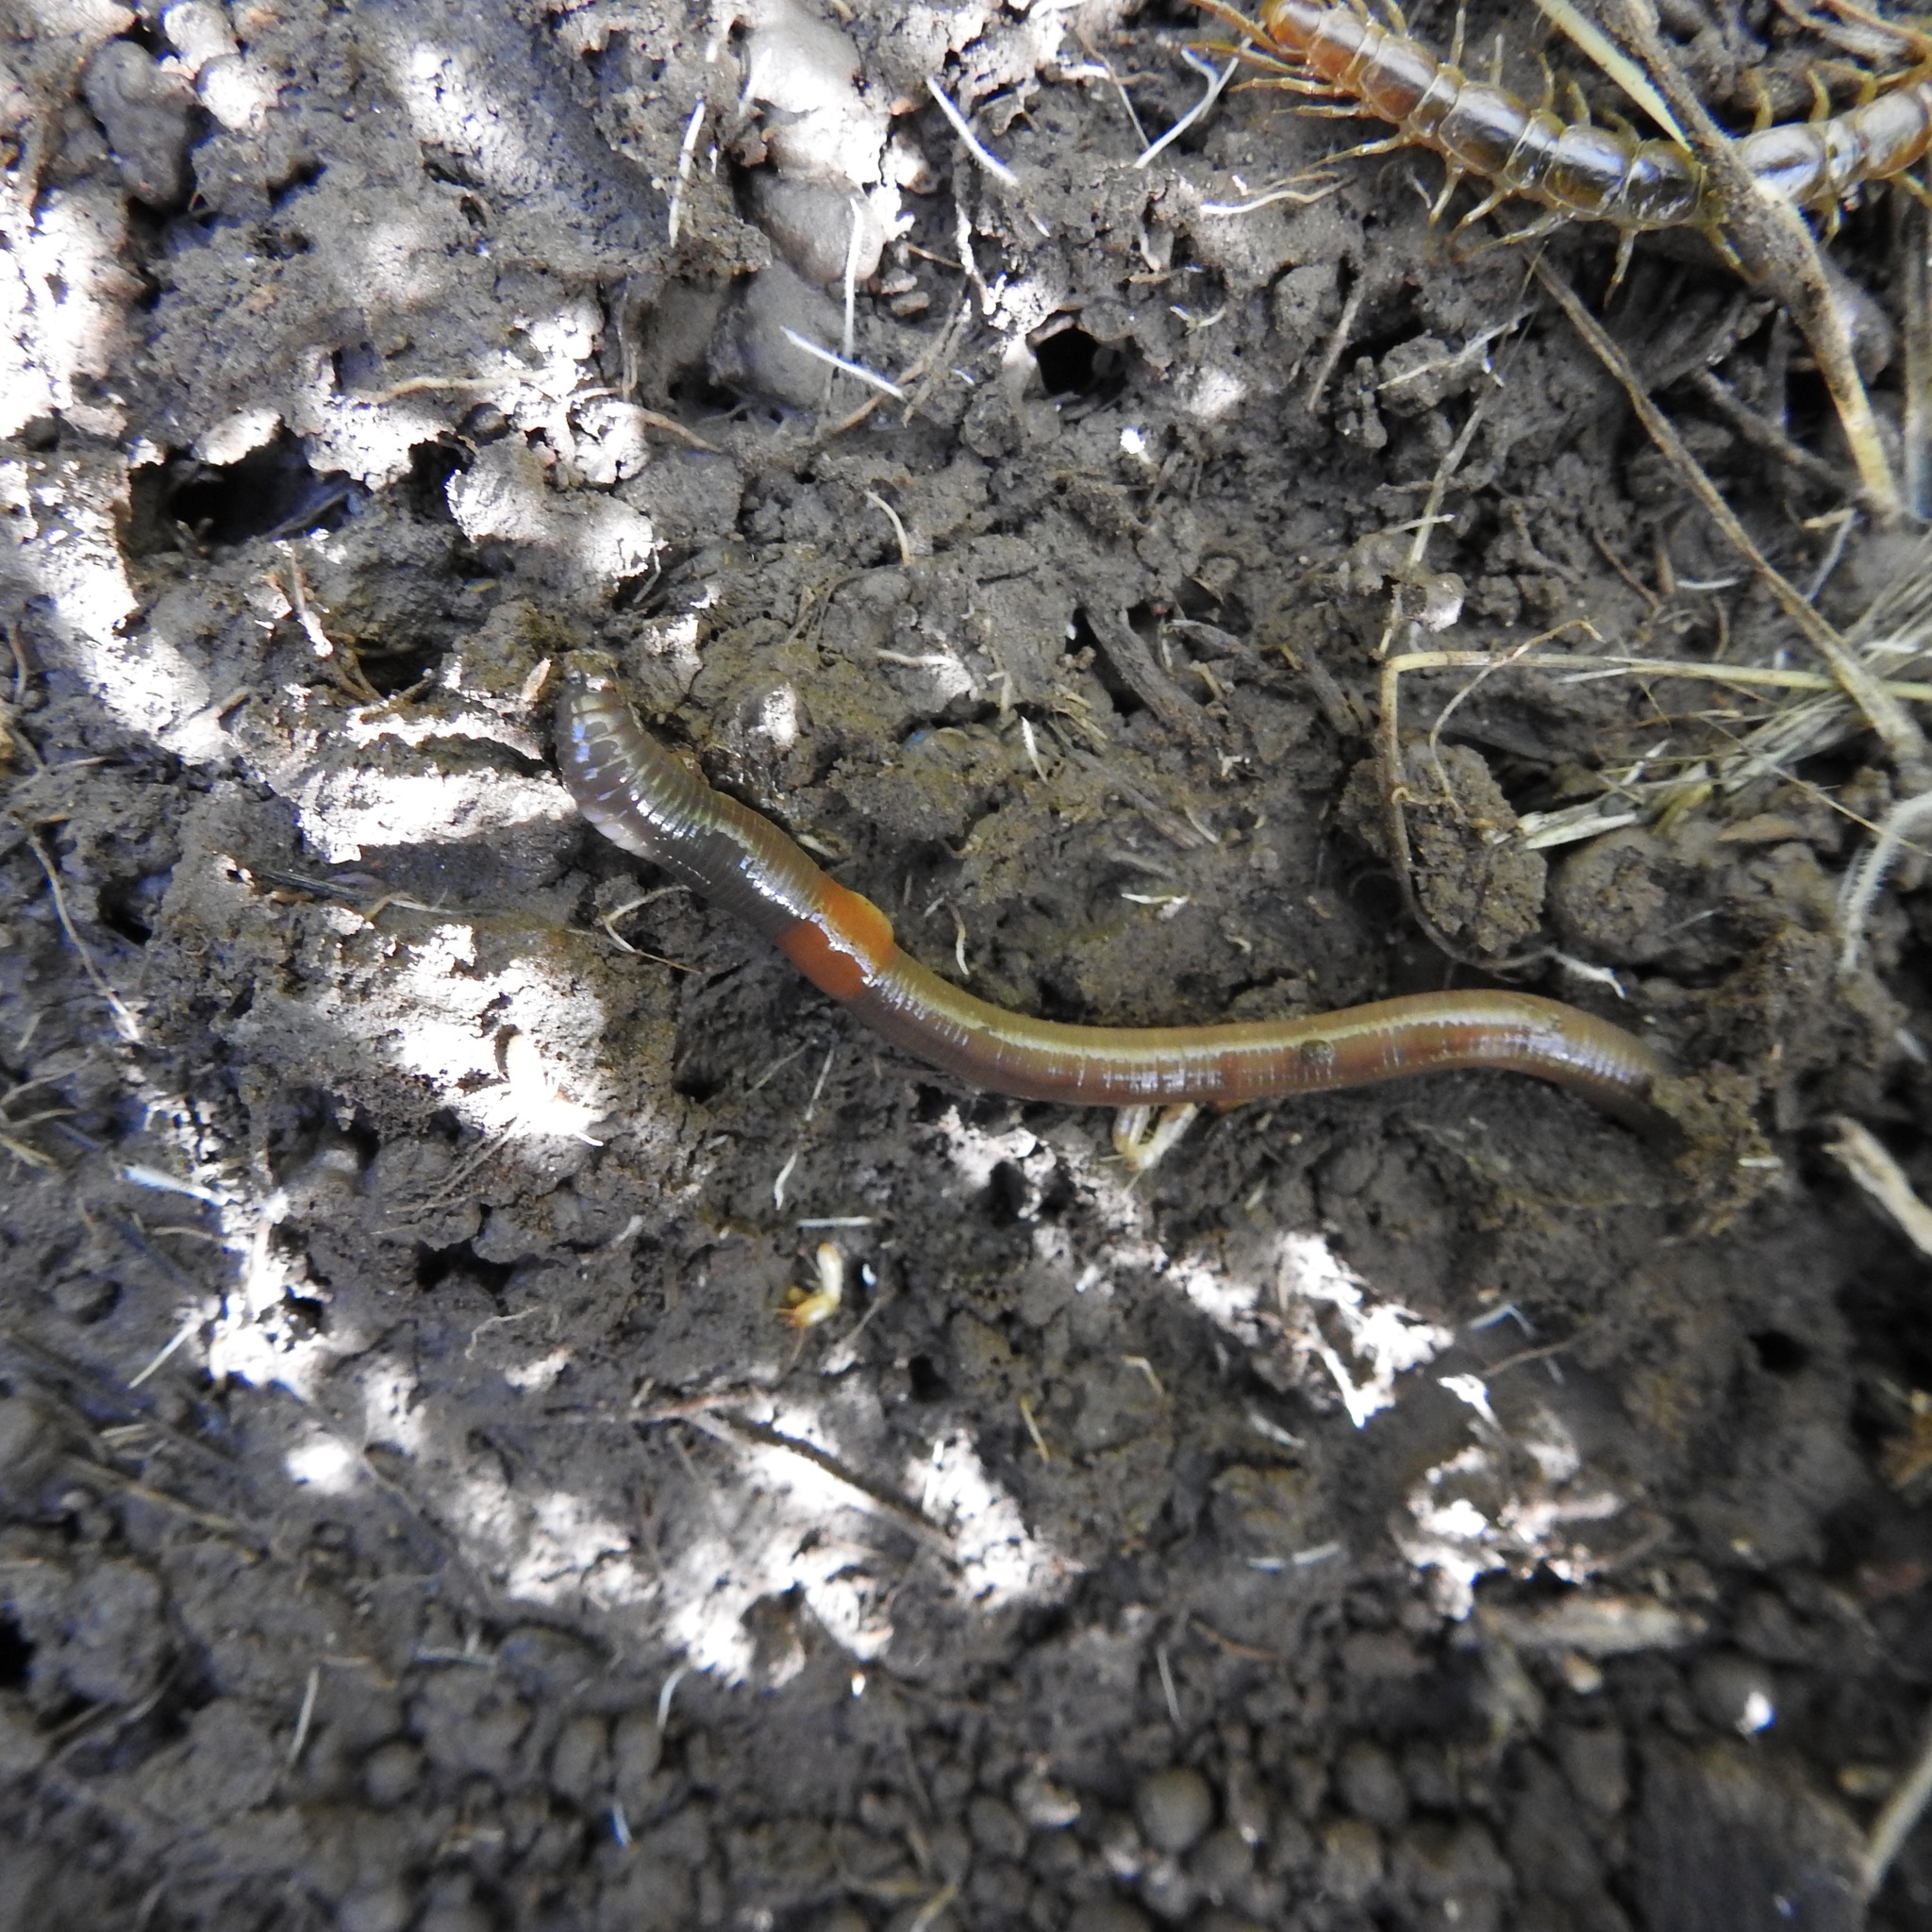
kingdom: Animalia
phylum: Annelida
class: Clitellata
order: Crassiclitellata
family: Lumbricidae
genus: Lumbricus
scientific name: Lumbricus terrestris
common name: Common earthworm
